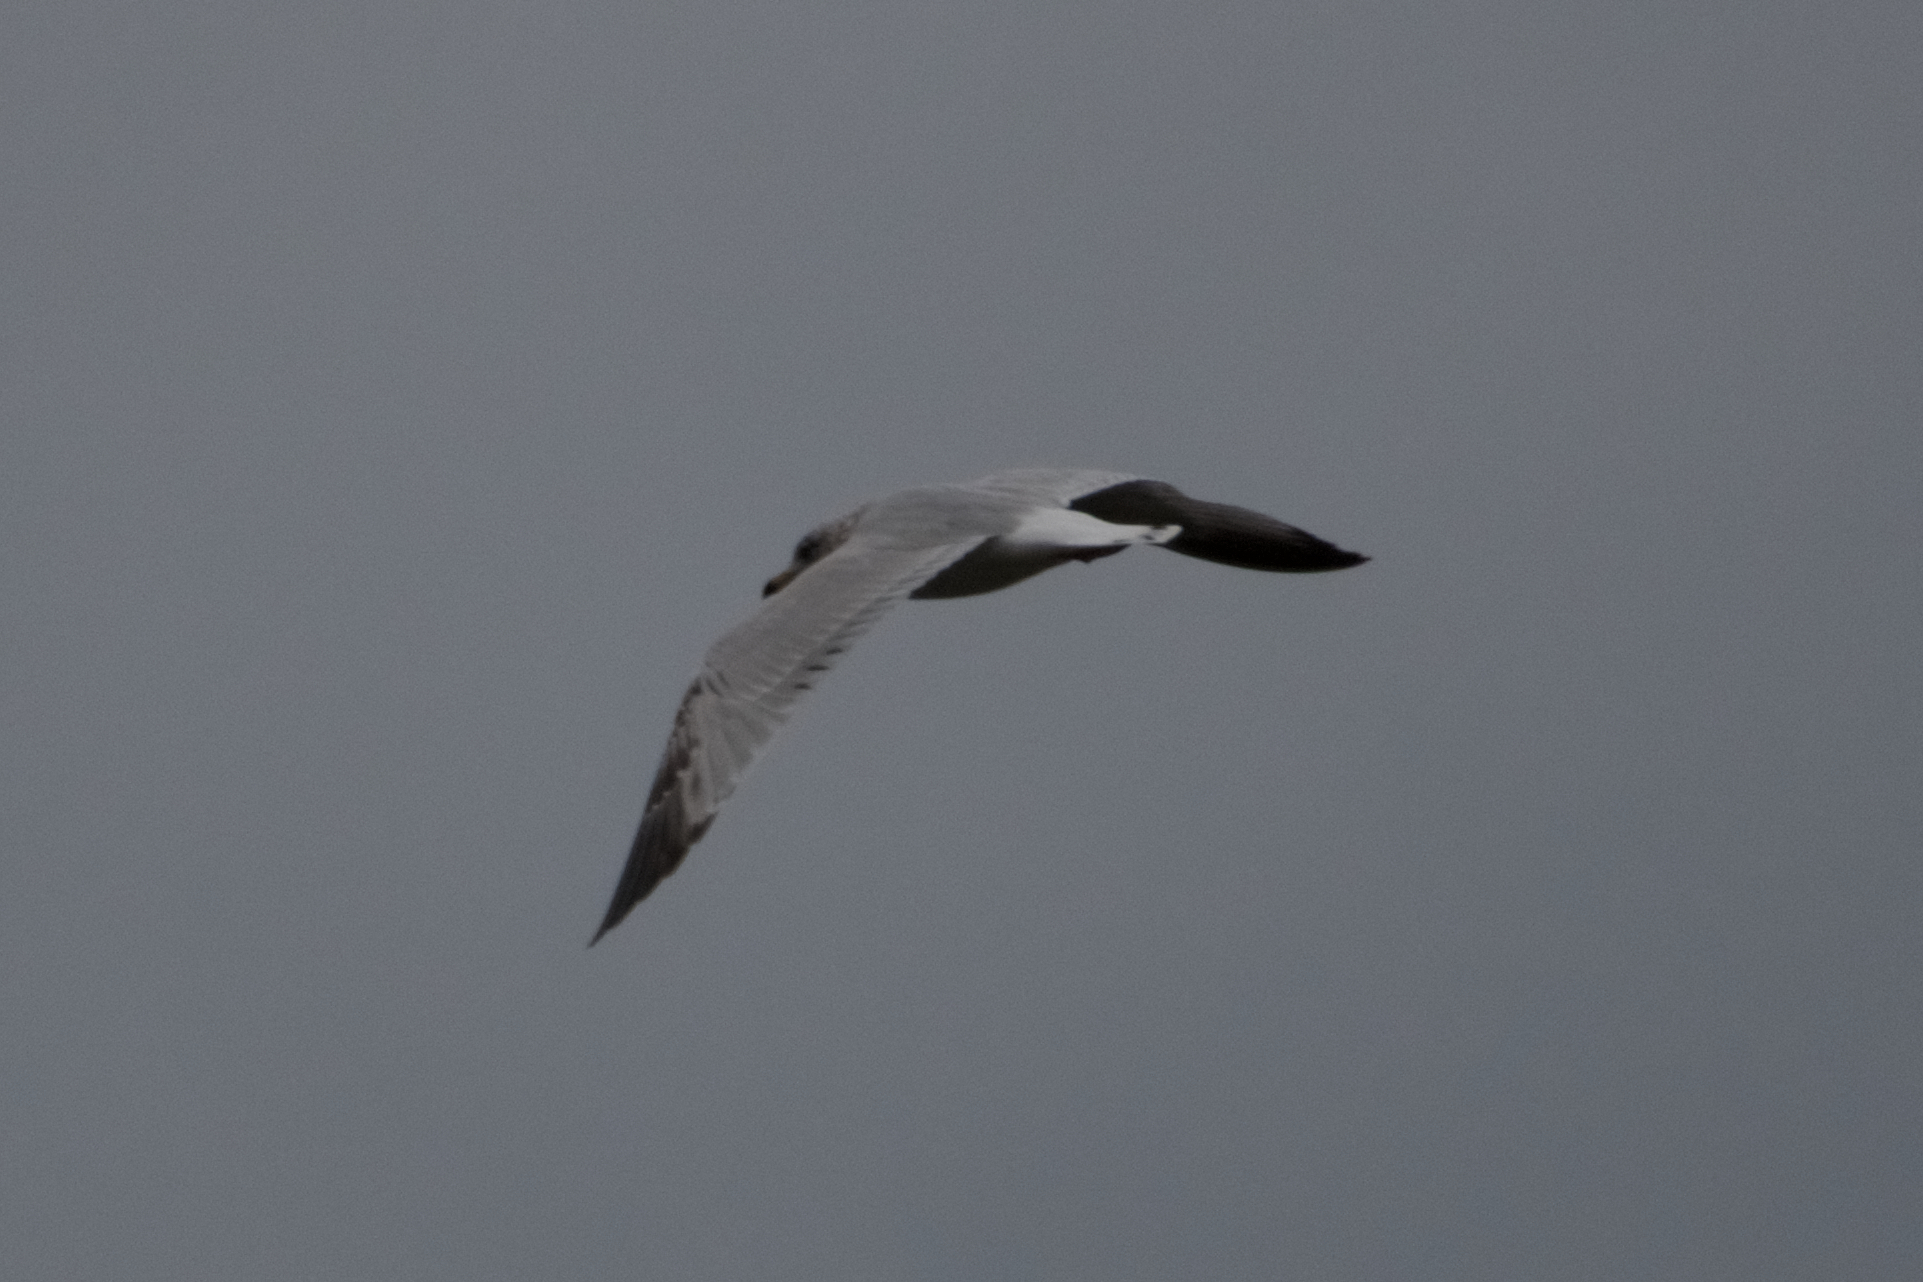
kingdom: Animalia
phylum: Chordata
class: Aves
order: Charadriiformes
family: Laridae
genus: Larus
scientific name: Larus delawarensis
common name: Ring-billed gull
